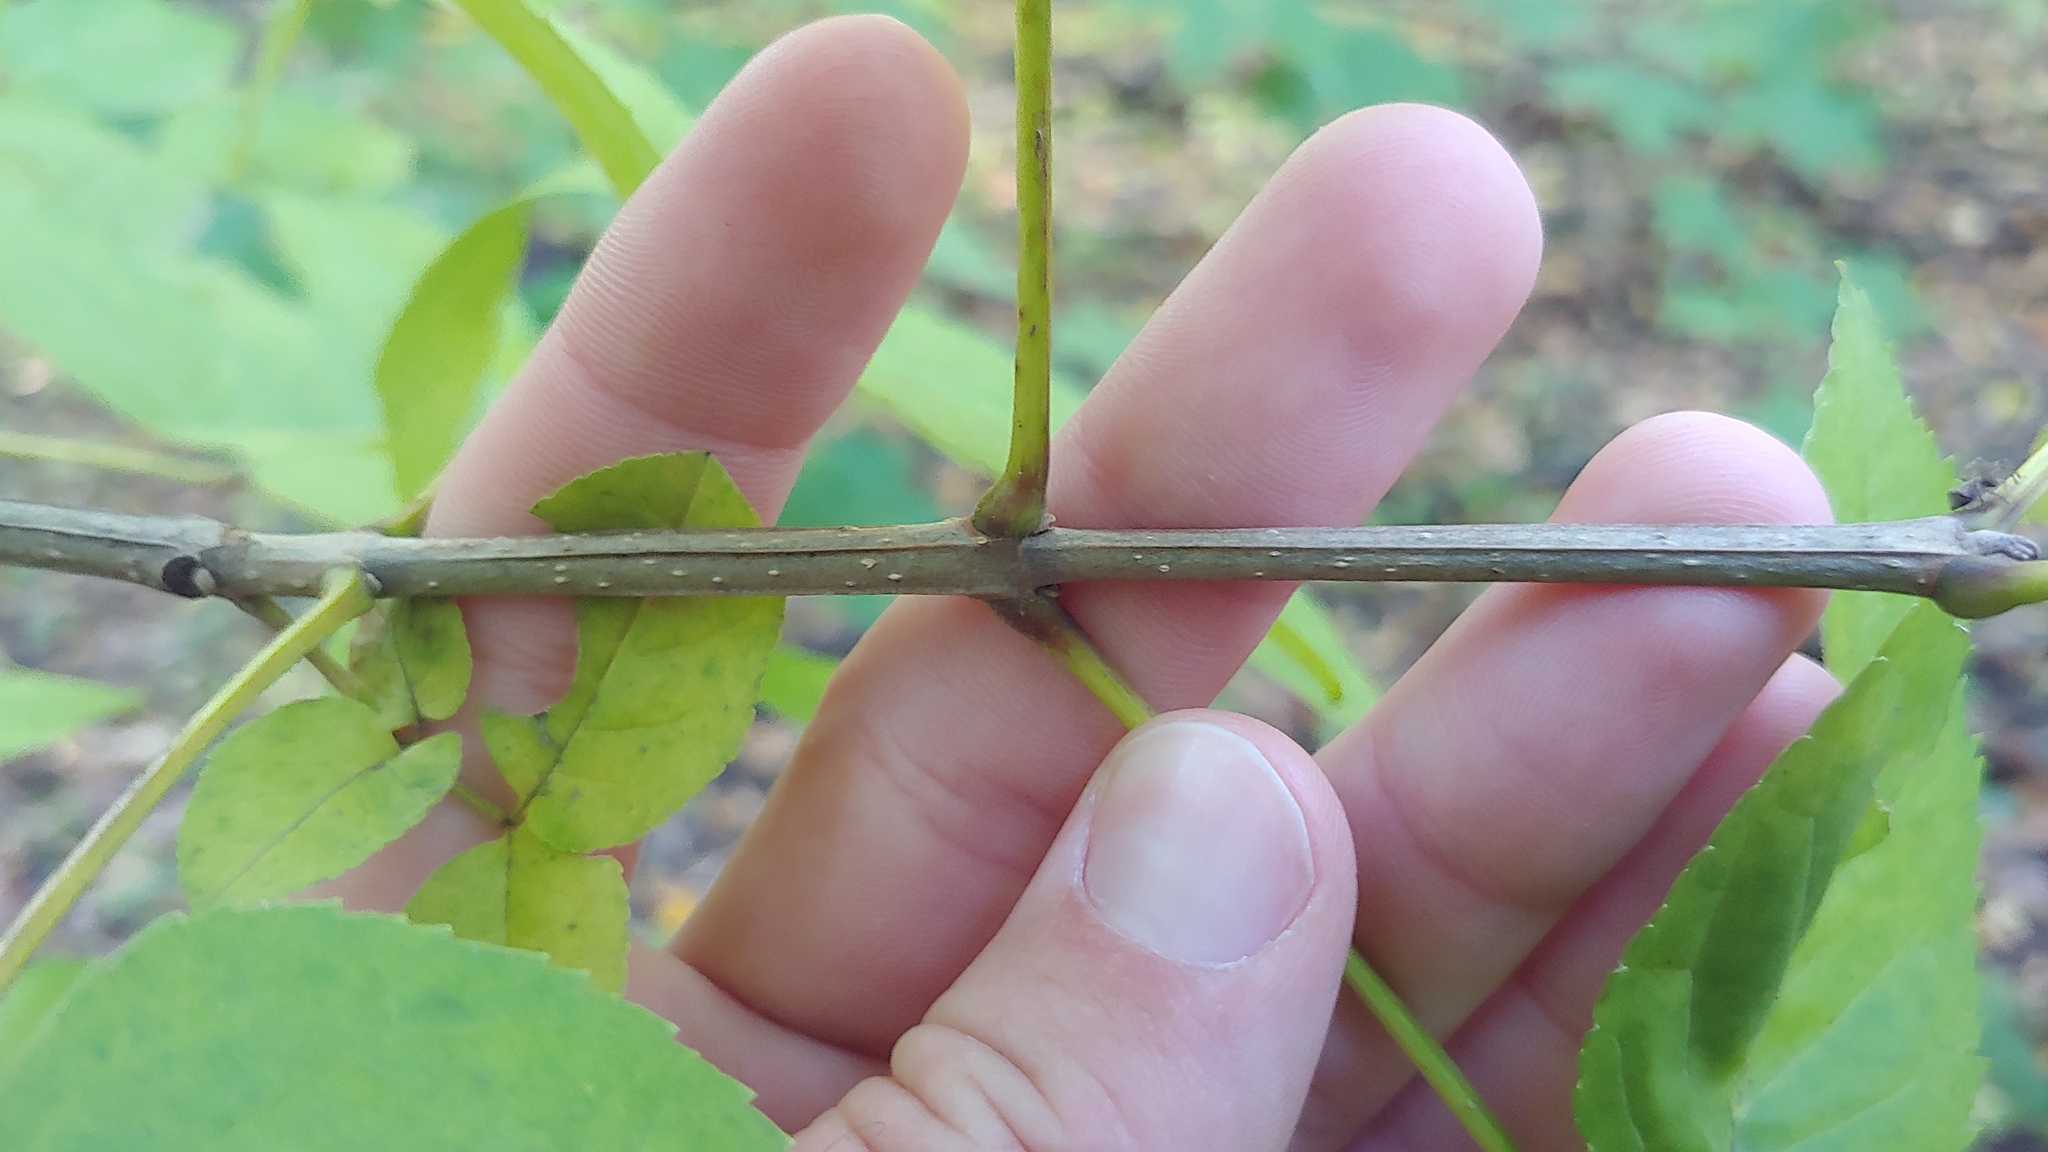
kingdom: Plantae
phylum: Tracheophyta
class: Magnoliopsida
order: Lamiales
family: Oleaceae
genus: Fraxinus
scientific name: Fraxinus quadrangulata
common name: Blue ash
